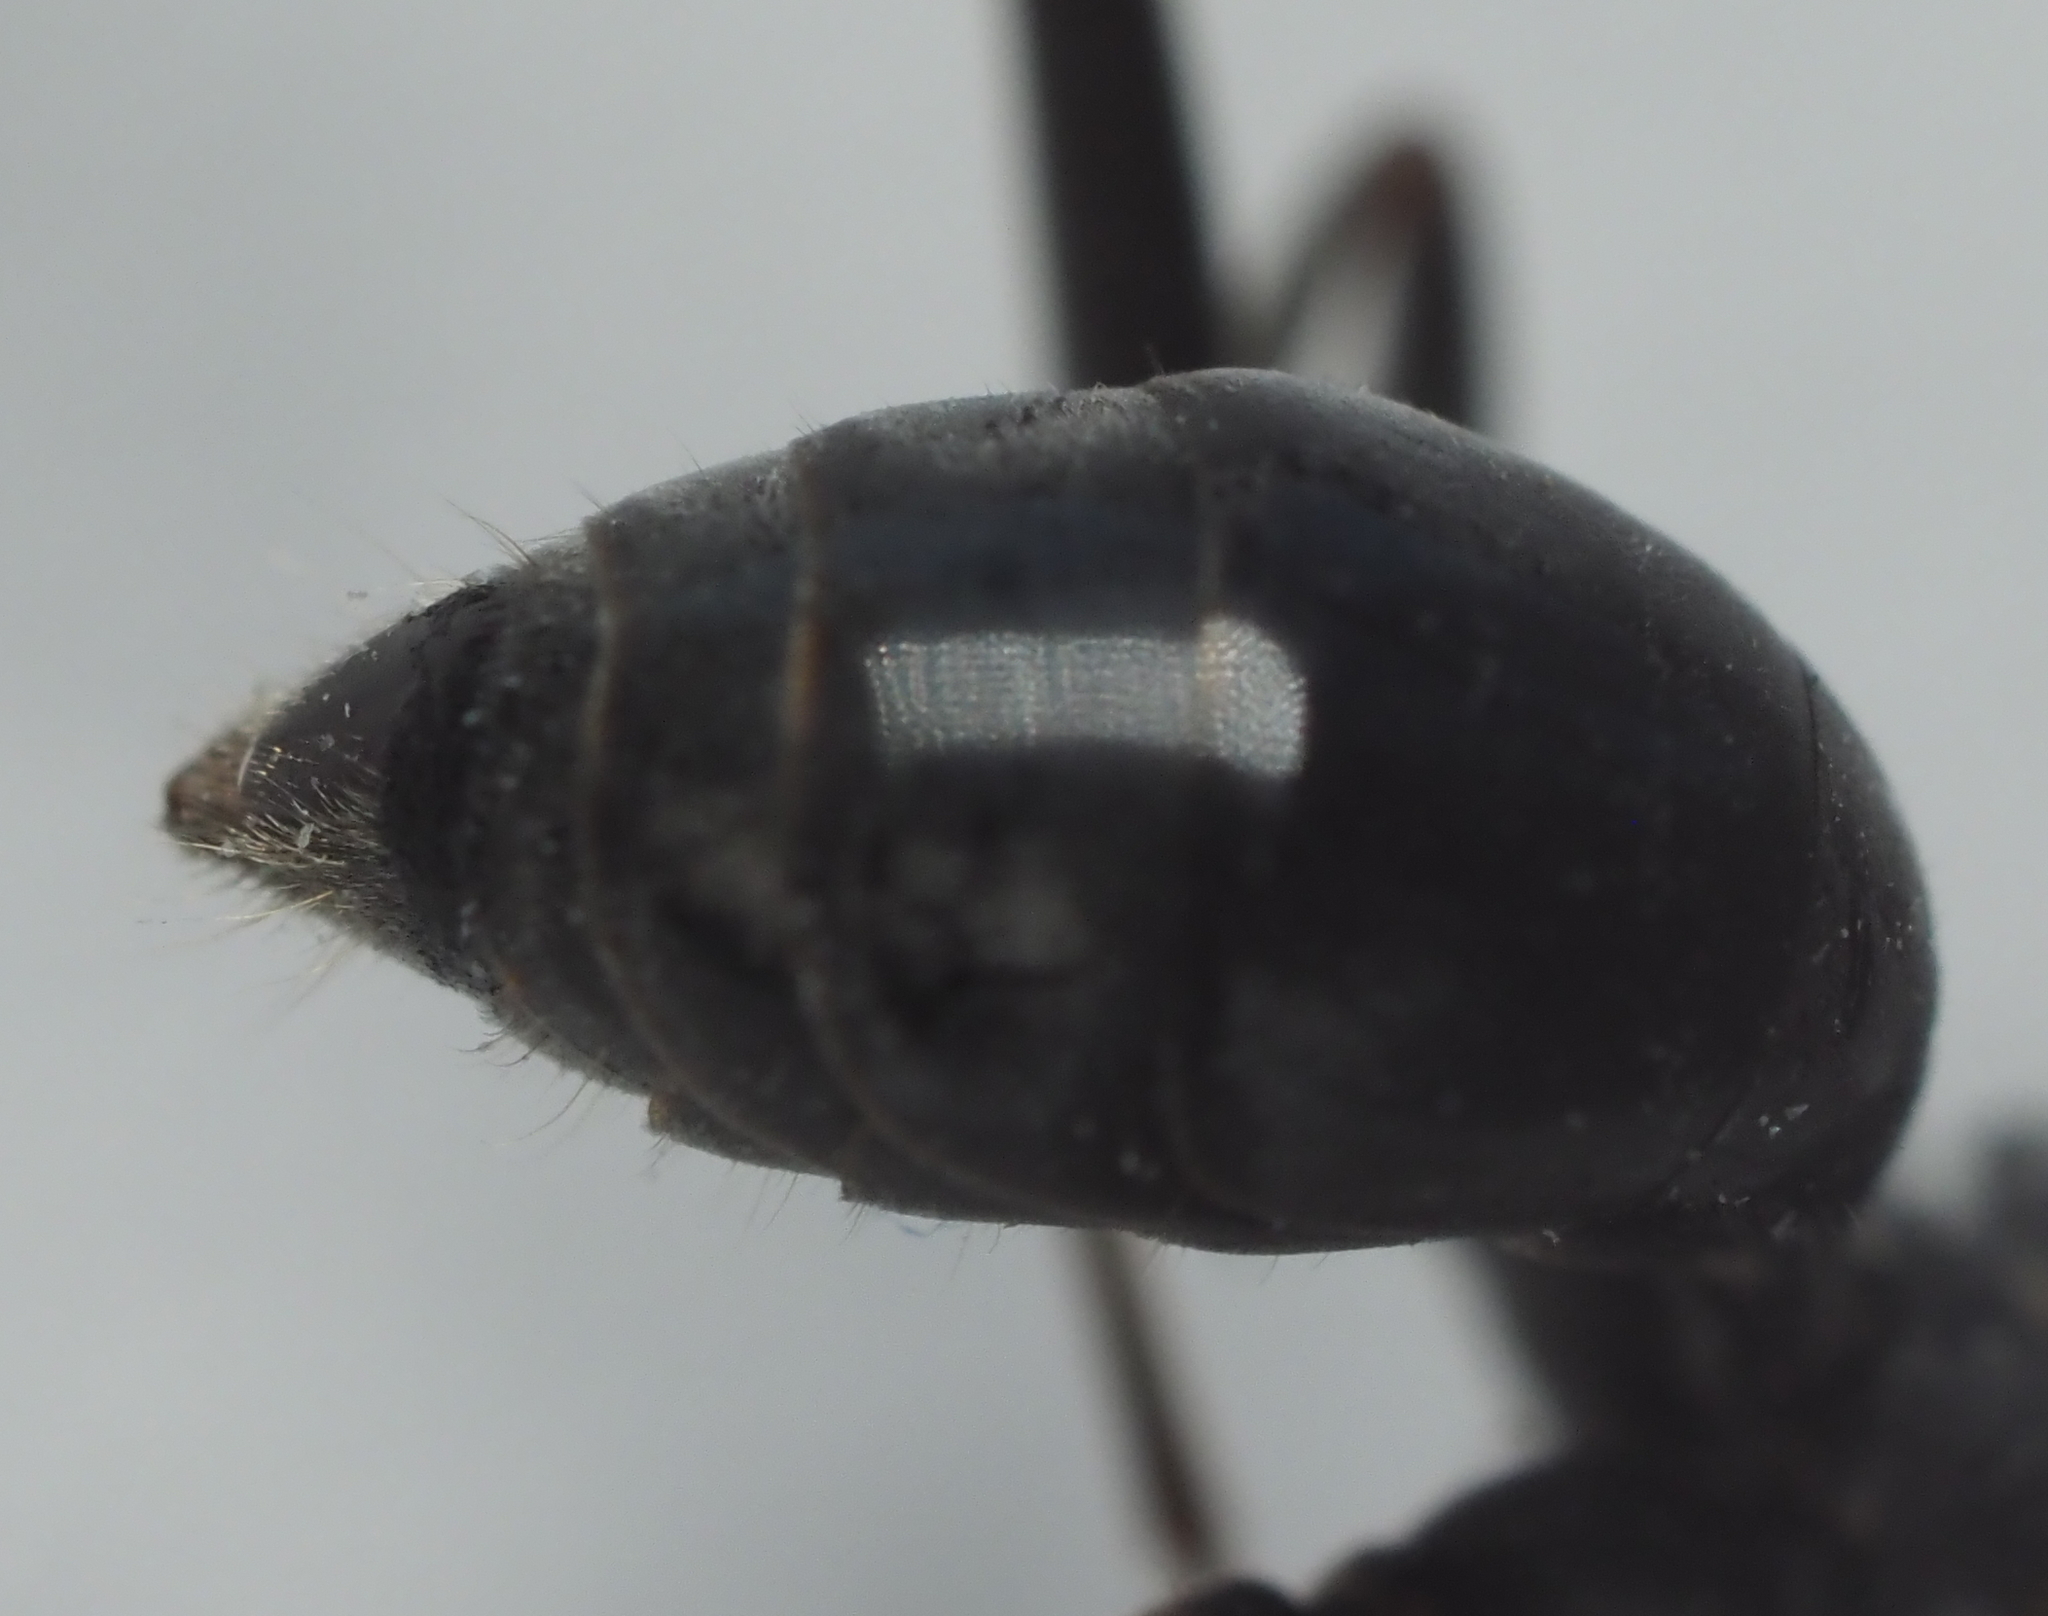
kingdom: Animalia
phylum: Arthropoda
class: Insecta
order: Hymenoptera
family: Pompilidae
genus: Auplopus
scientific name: Auplopus mellipes
